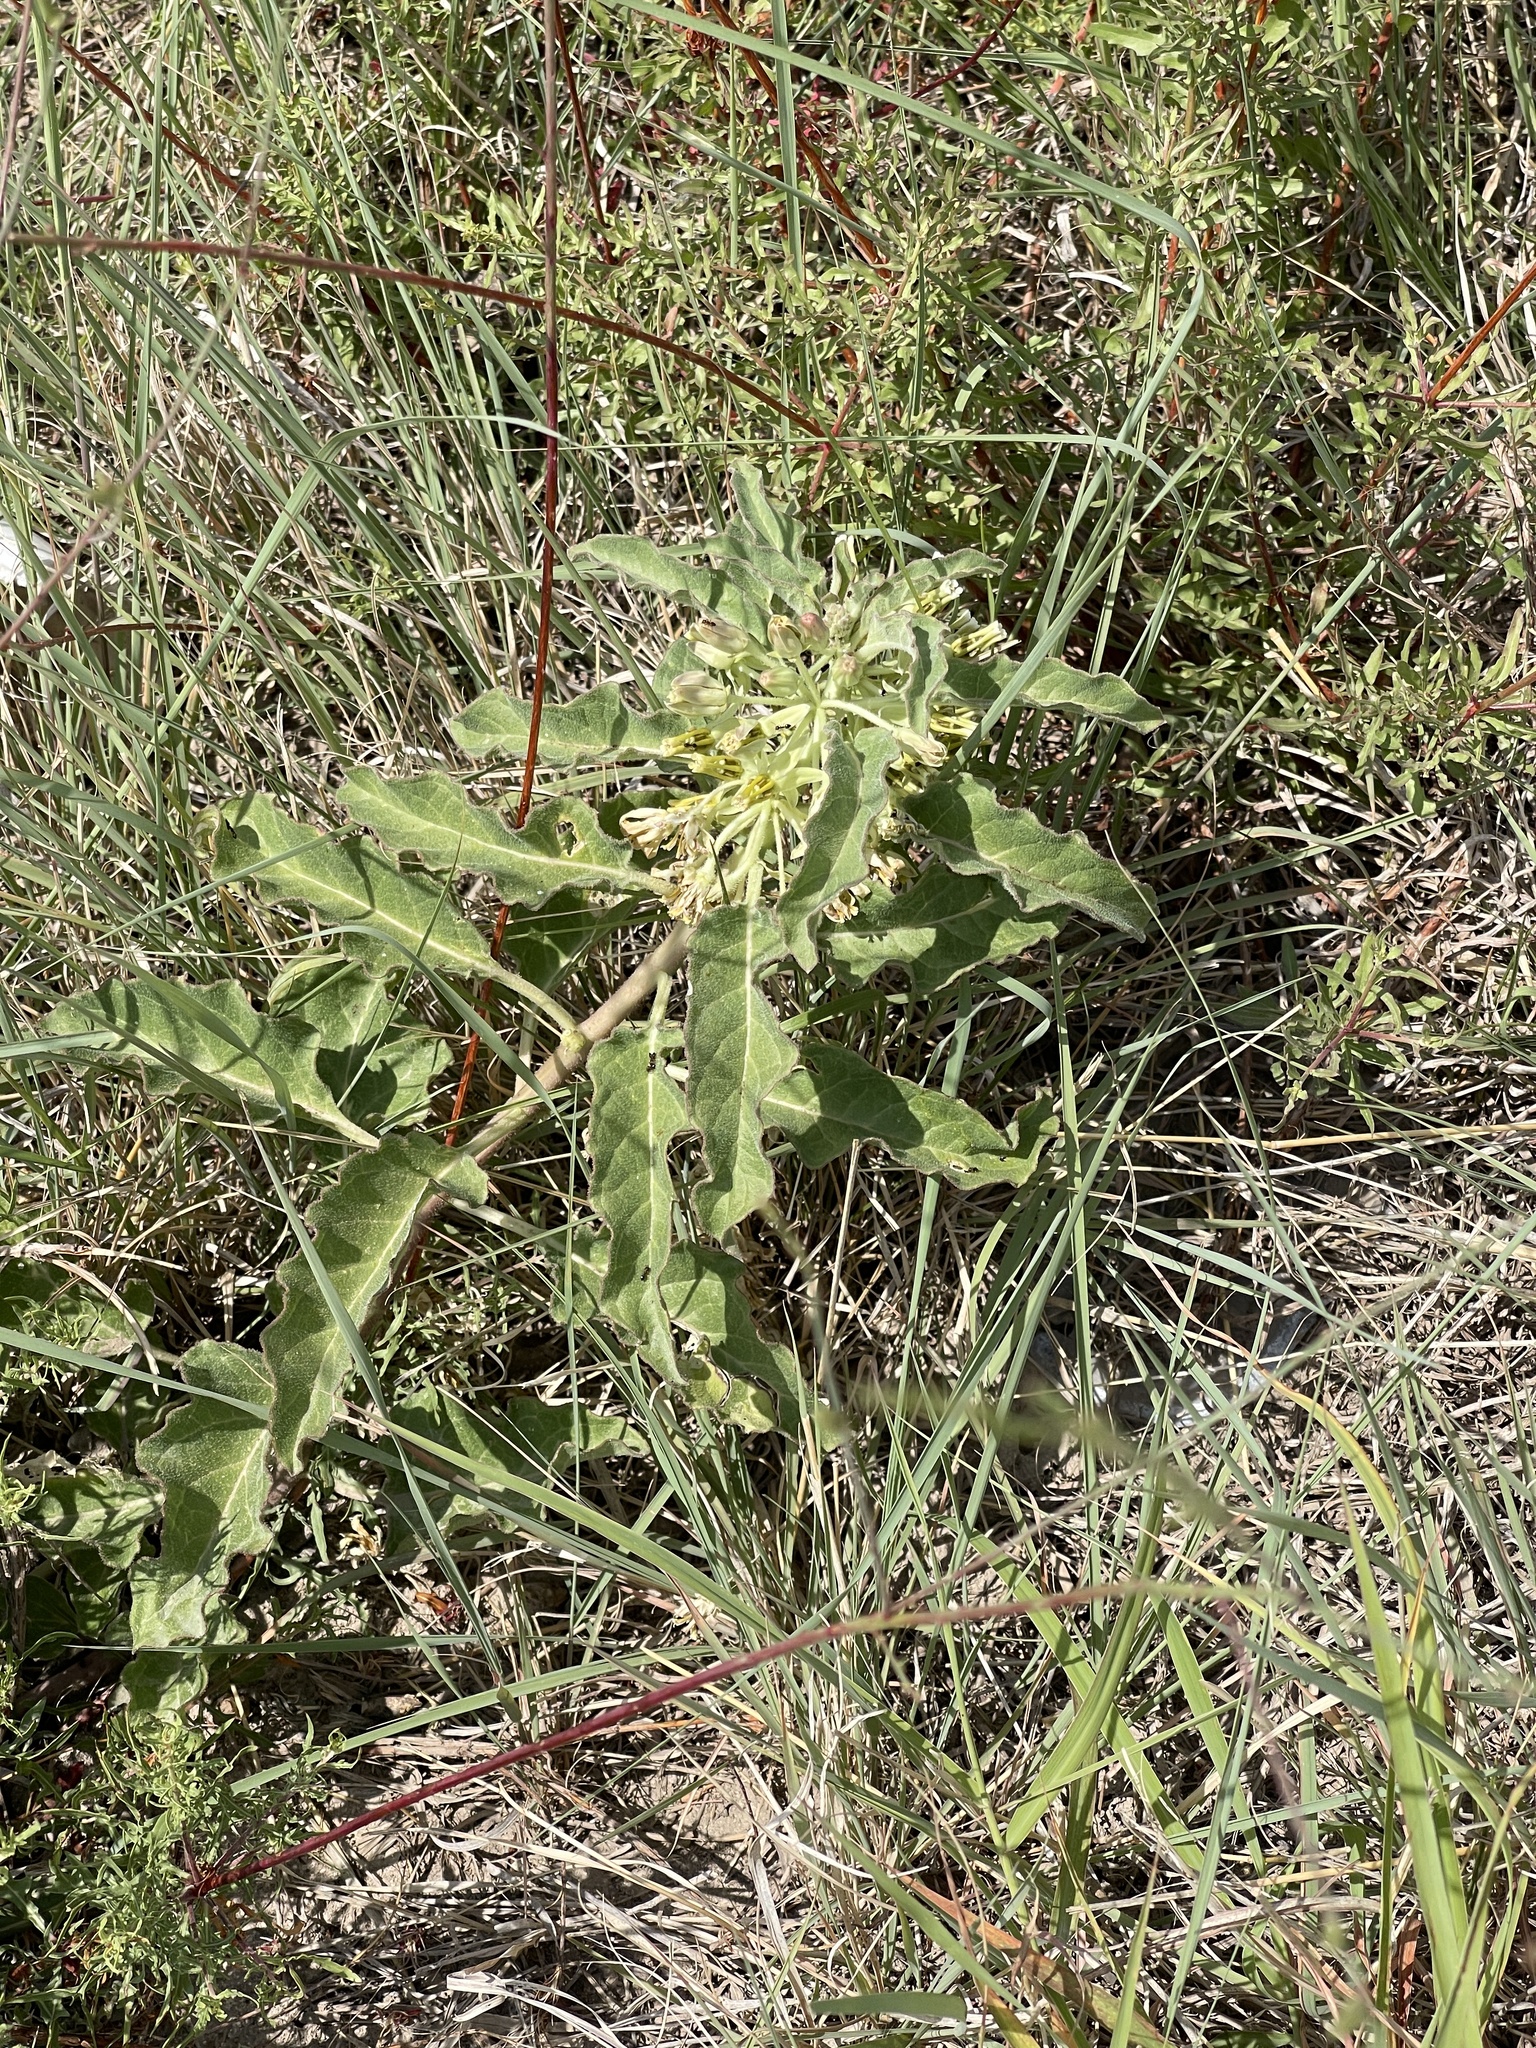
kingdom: Plantae
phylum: Tracheophyta
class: Magnoliopsida
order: Gentianales
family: Apocynaceae
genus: Asclepias
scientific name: Asclepias oenotheroides
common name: Zizotes milkweed
